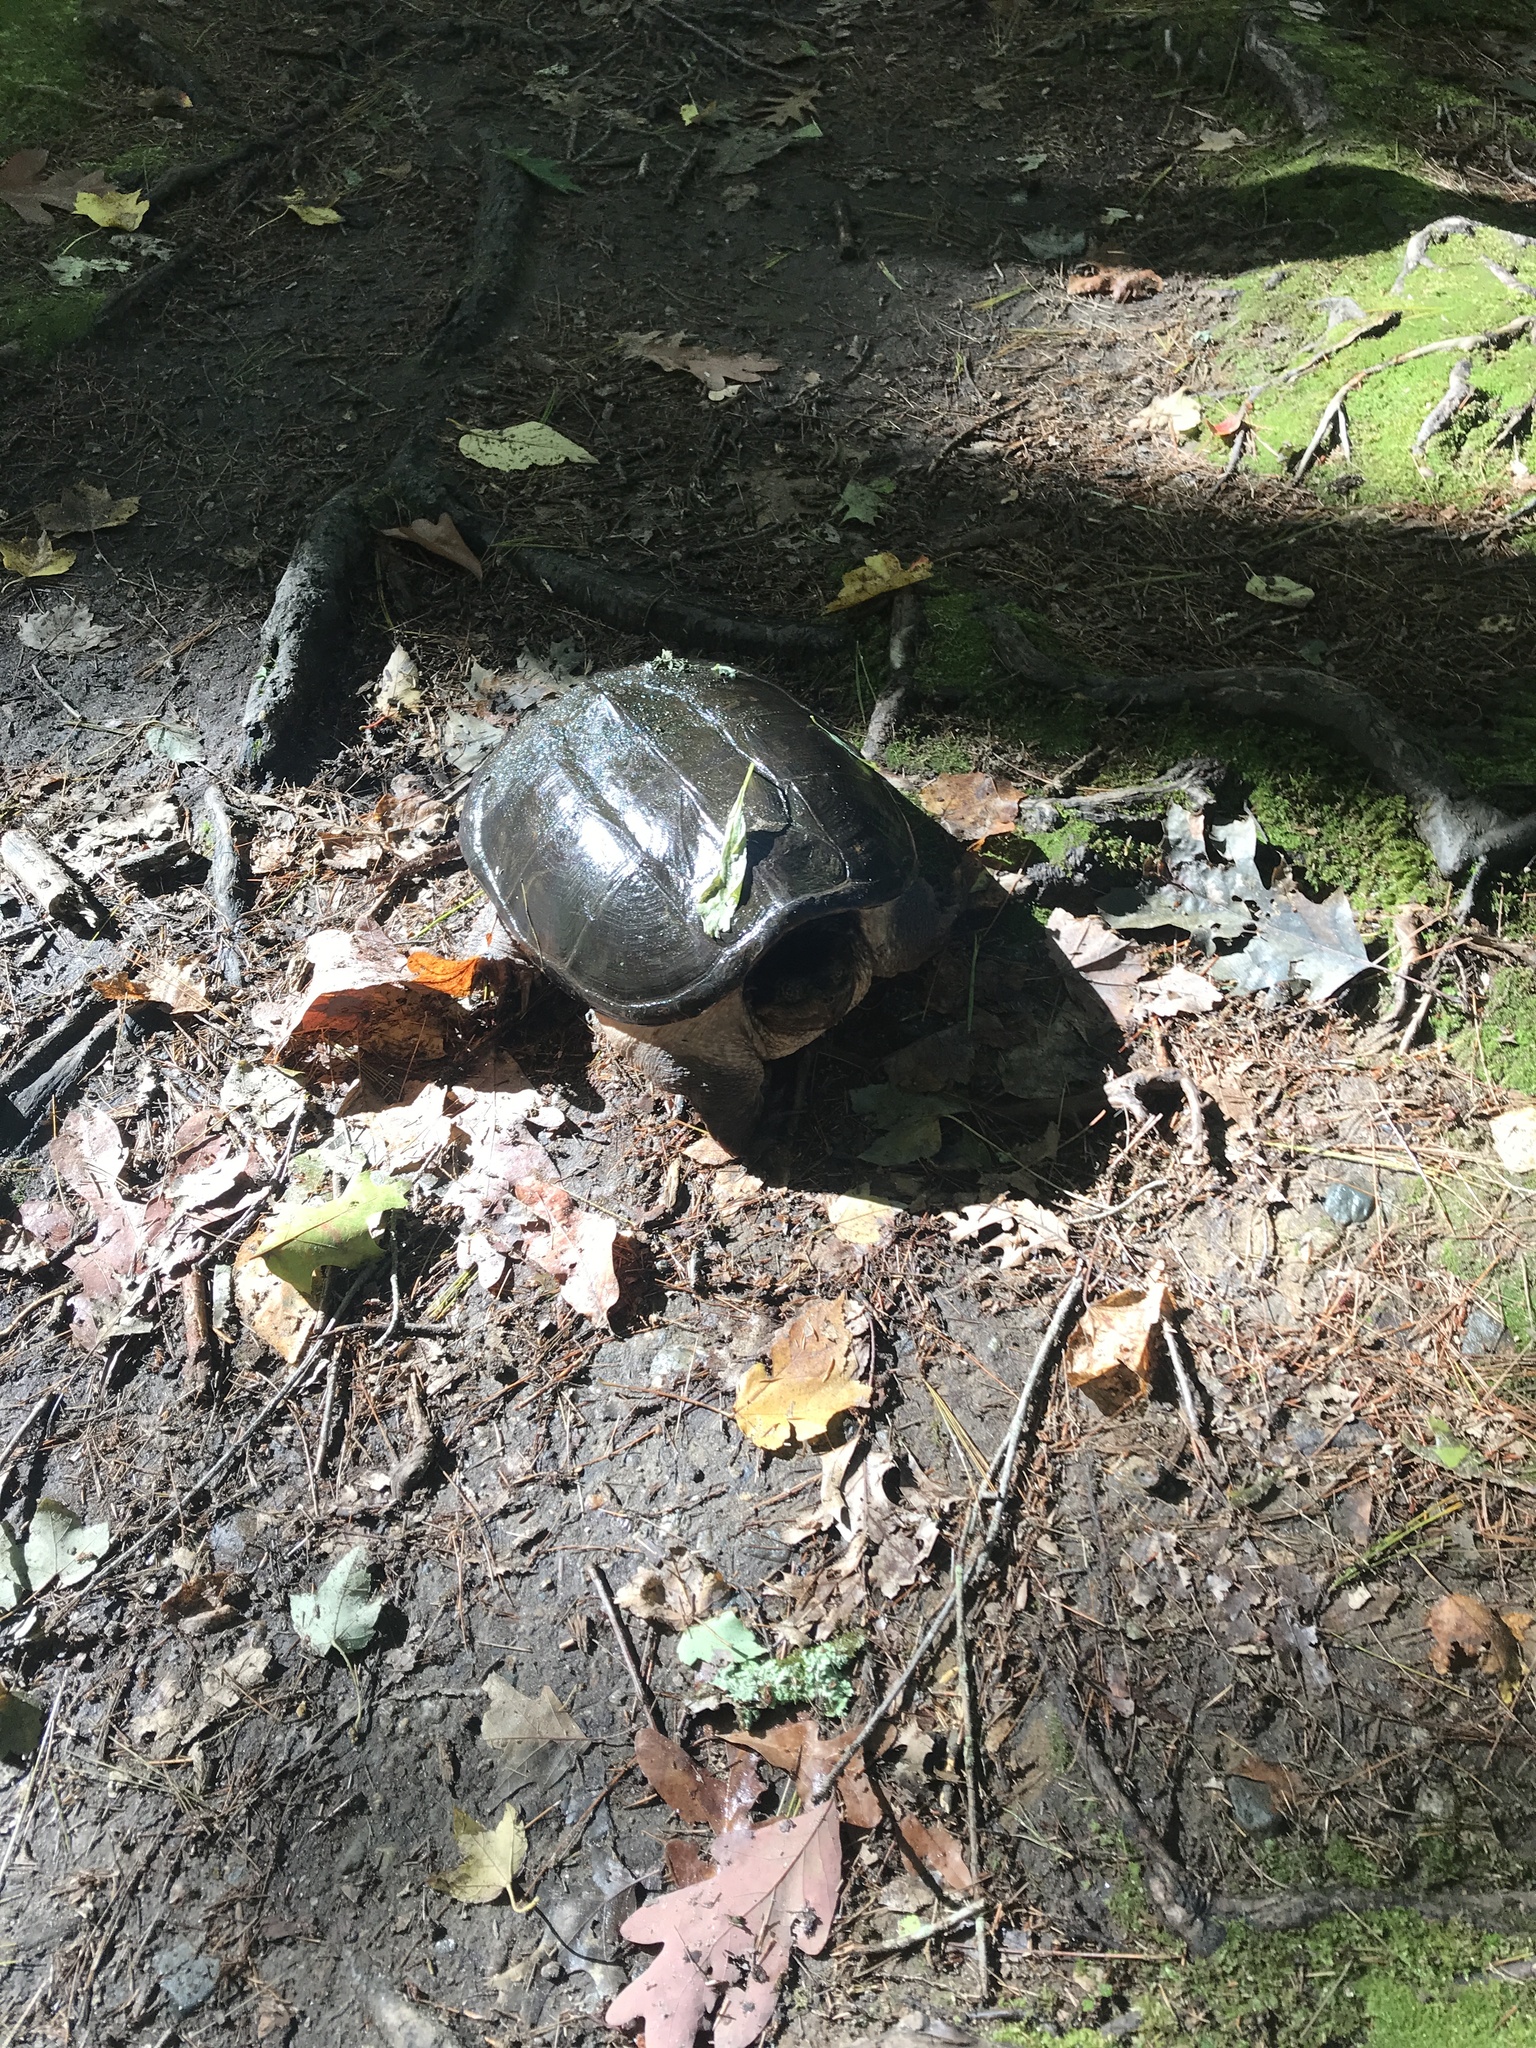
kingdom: Animalia
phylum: Chordata
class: Testudines
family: Chelydridae
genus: Chelydra
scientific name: Chelydra serpentina
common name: Common snapping turtle
